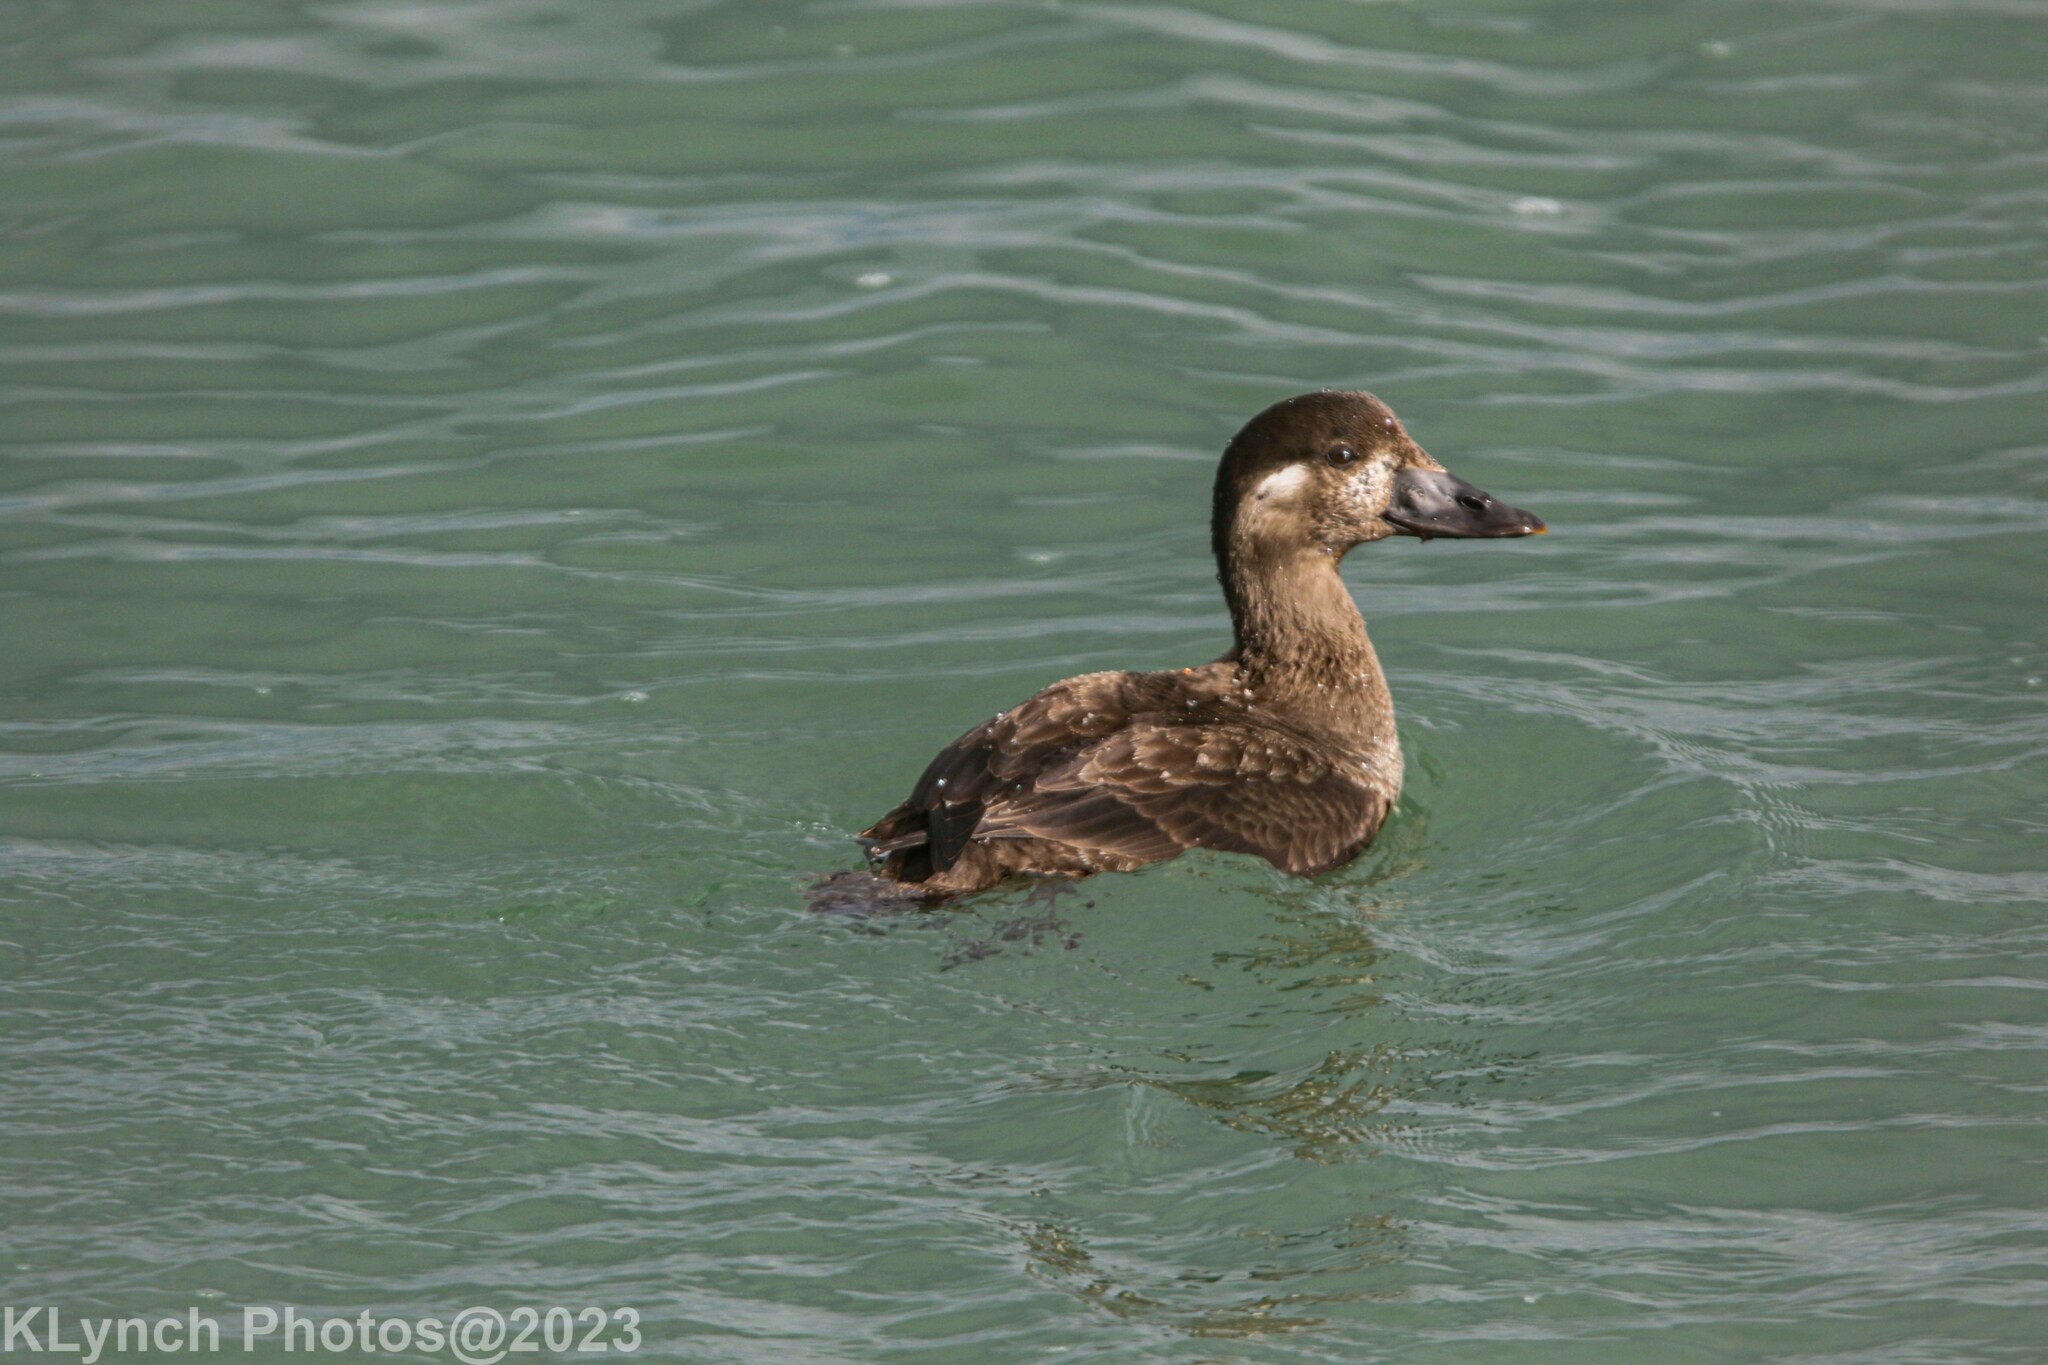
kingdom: Animalia
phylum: Chordata
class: Aves
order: Anseriformes
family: Anatidae
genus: Melanitta
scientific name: Melanitta perspicillata
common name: Surf scoter
